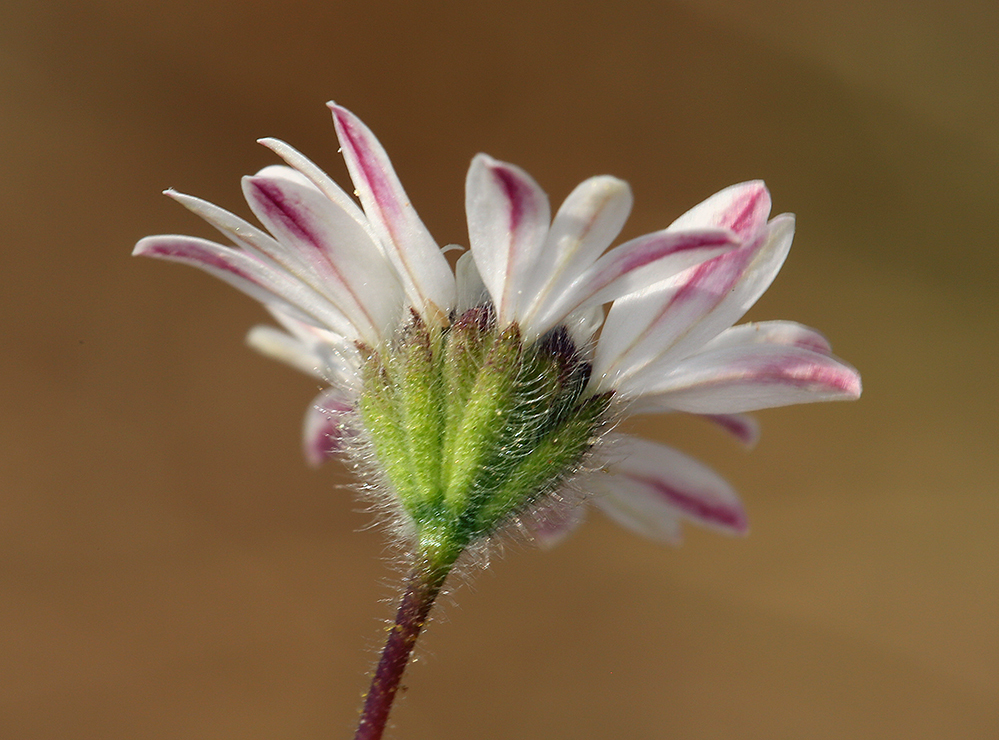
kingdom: Plantae
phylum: Tracheophyta
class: Magnoliopsida
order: Asterales
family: Asteraceae
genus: Holozonia
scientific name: Holozonia filipes
